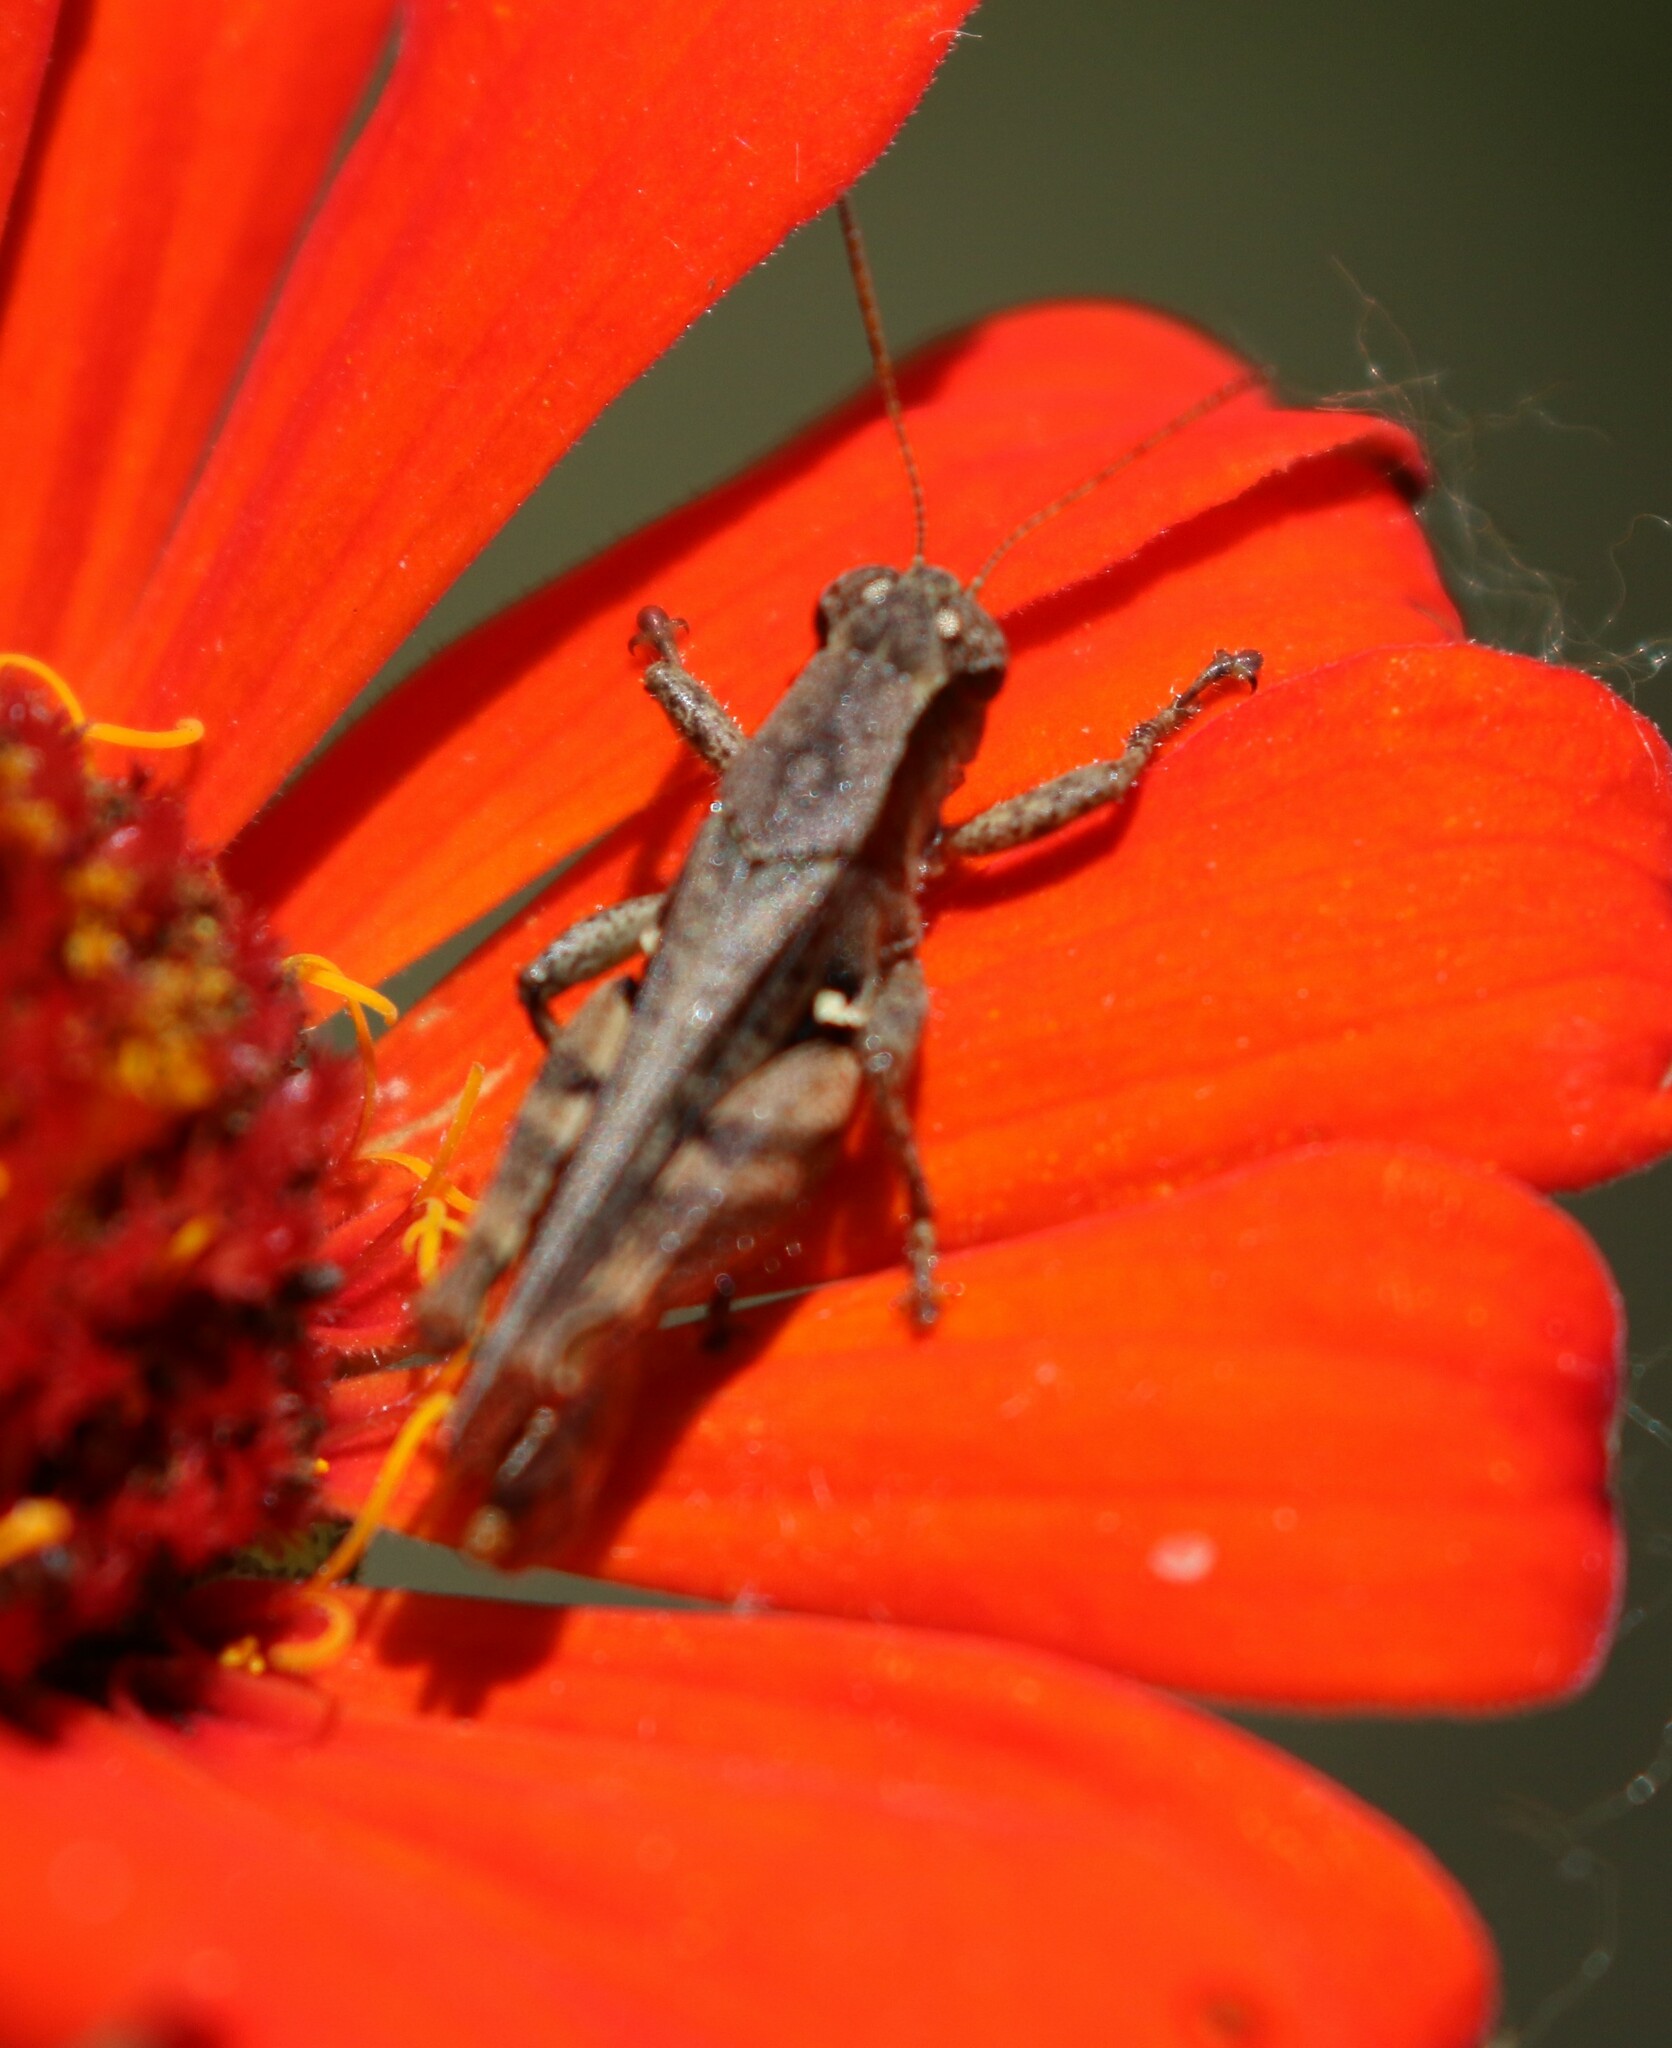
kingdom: Animalia
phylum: Arthropoda
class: Insecta
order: Orthoptera
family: Acrididae
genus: Aidemona
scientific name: Aidemona azteca
